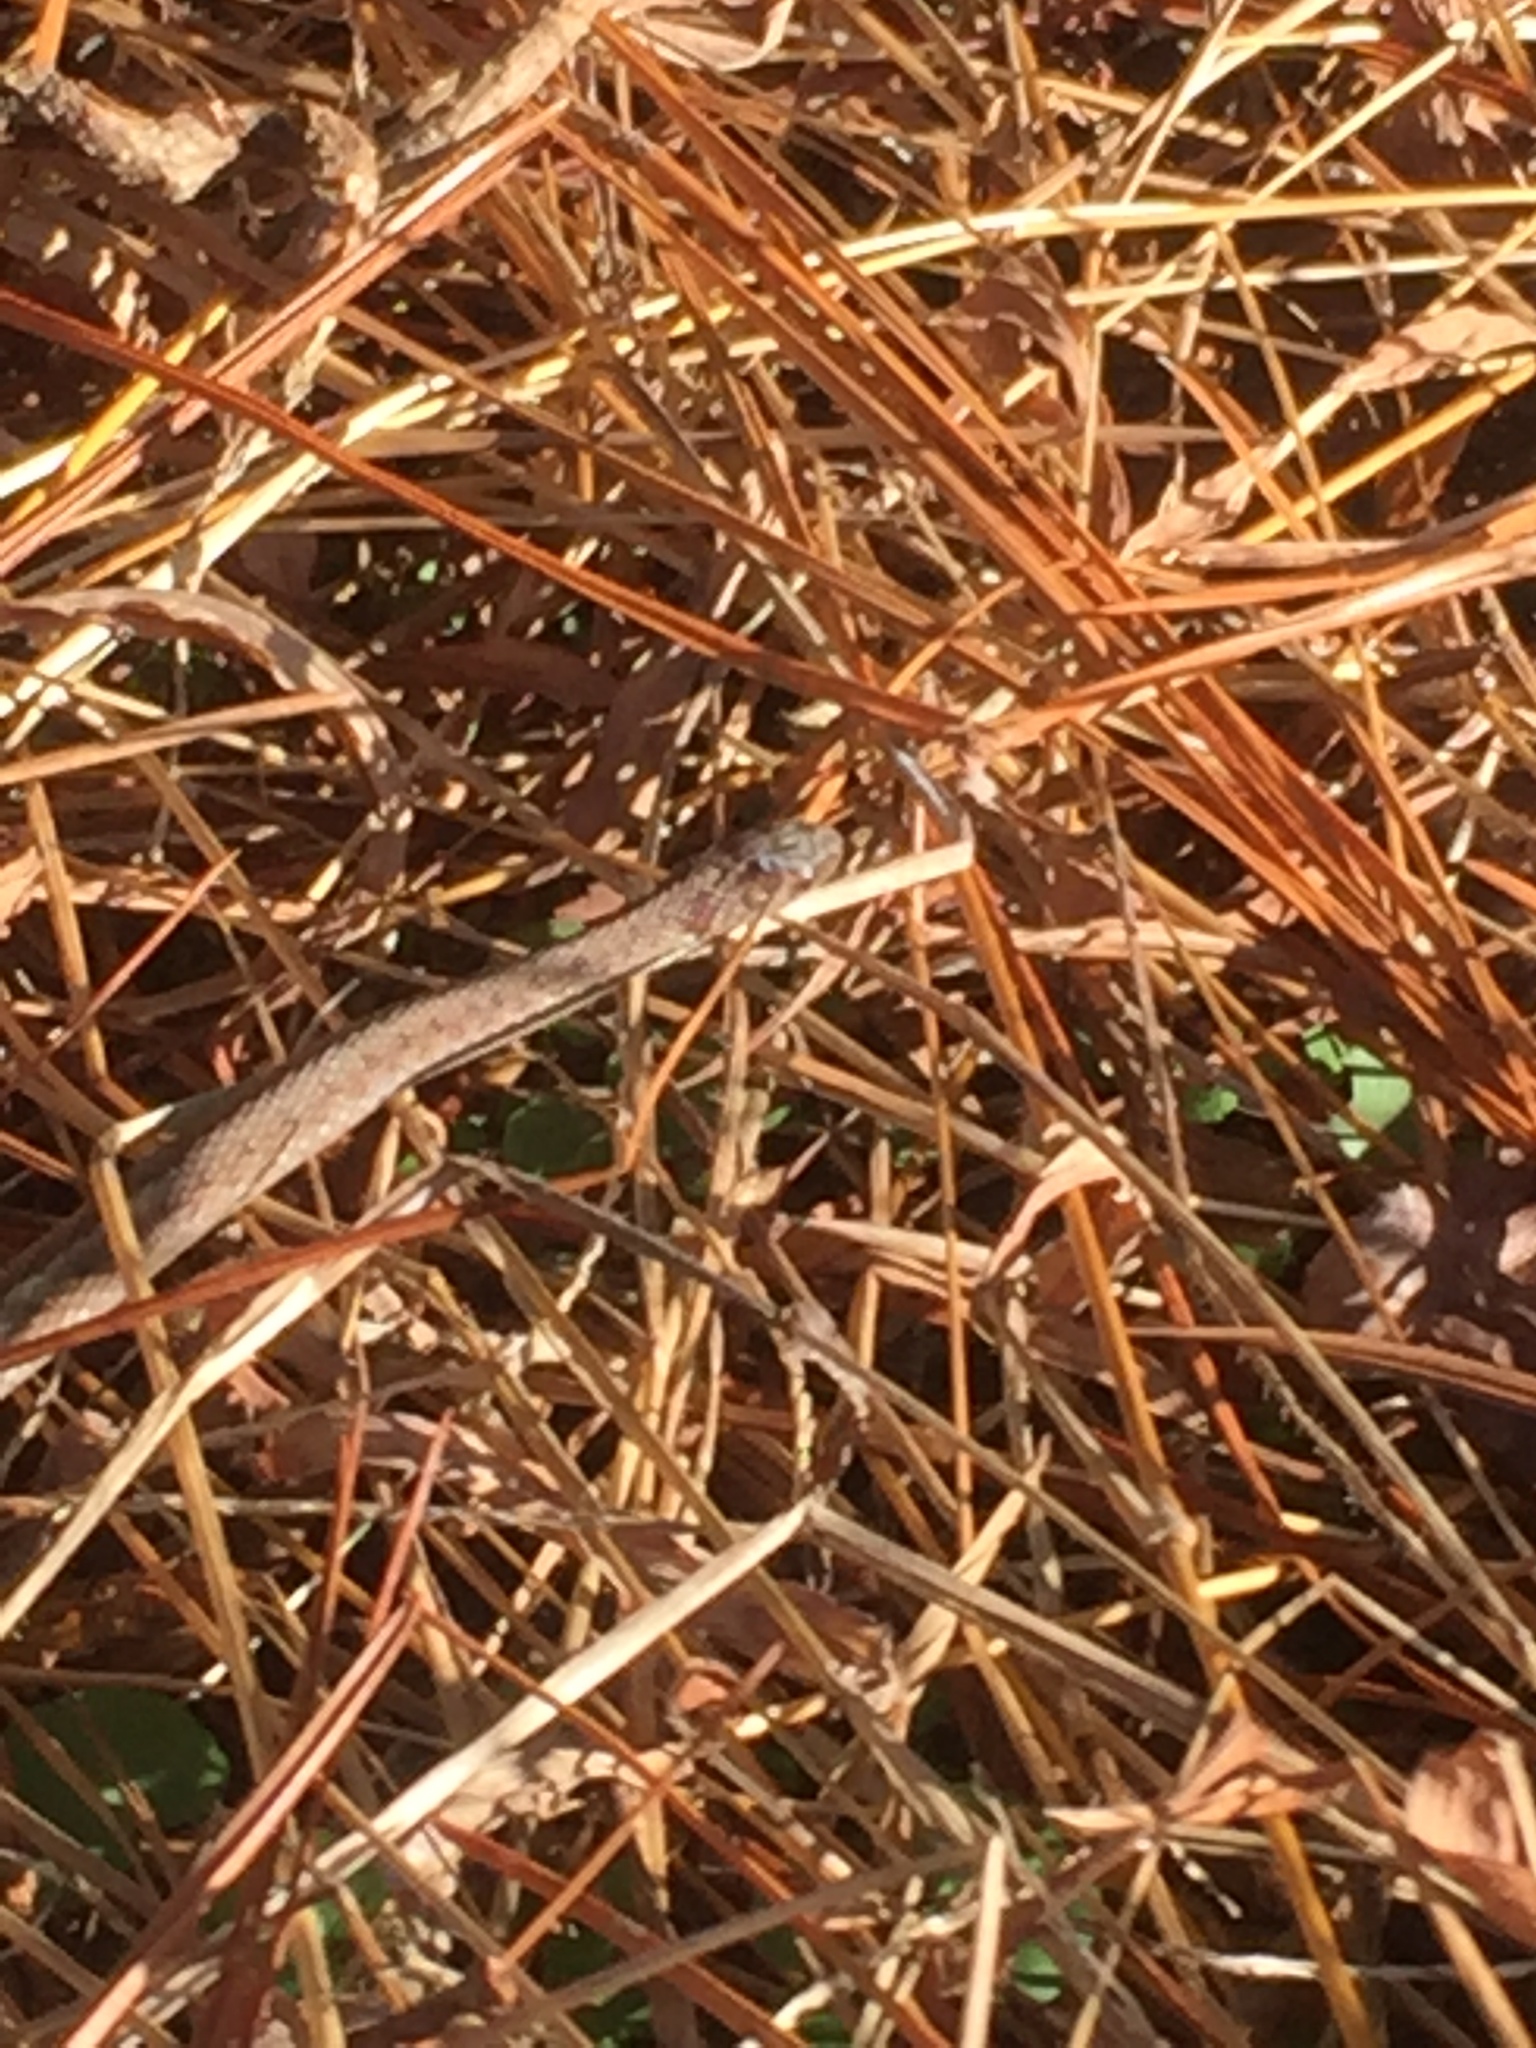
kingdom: Animalia
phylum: Chordata
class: Squamata
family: Colubridae
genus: Storeria
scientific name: Storeria dekayi
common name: (dekay’s) brown snake
